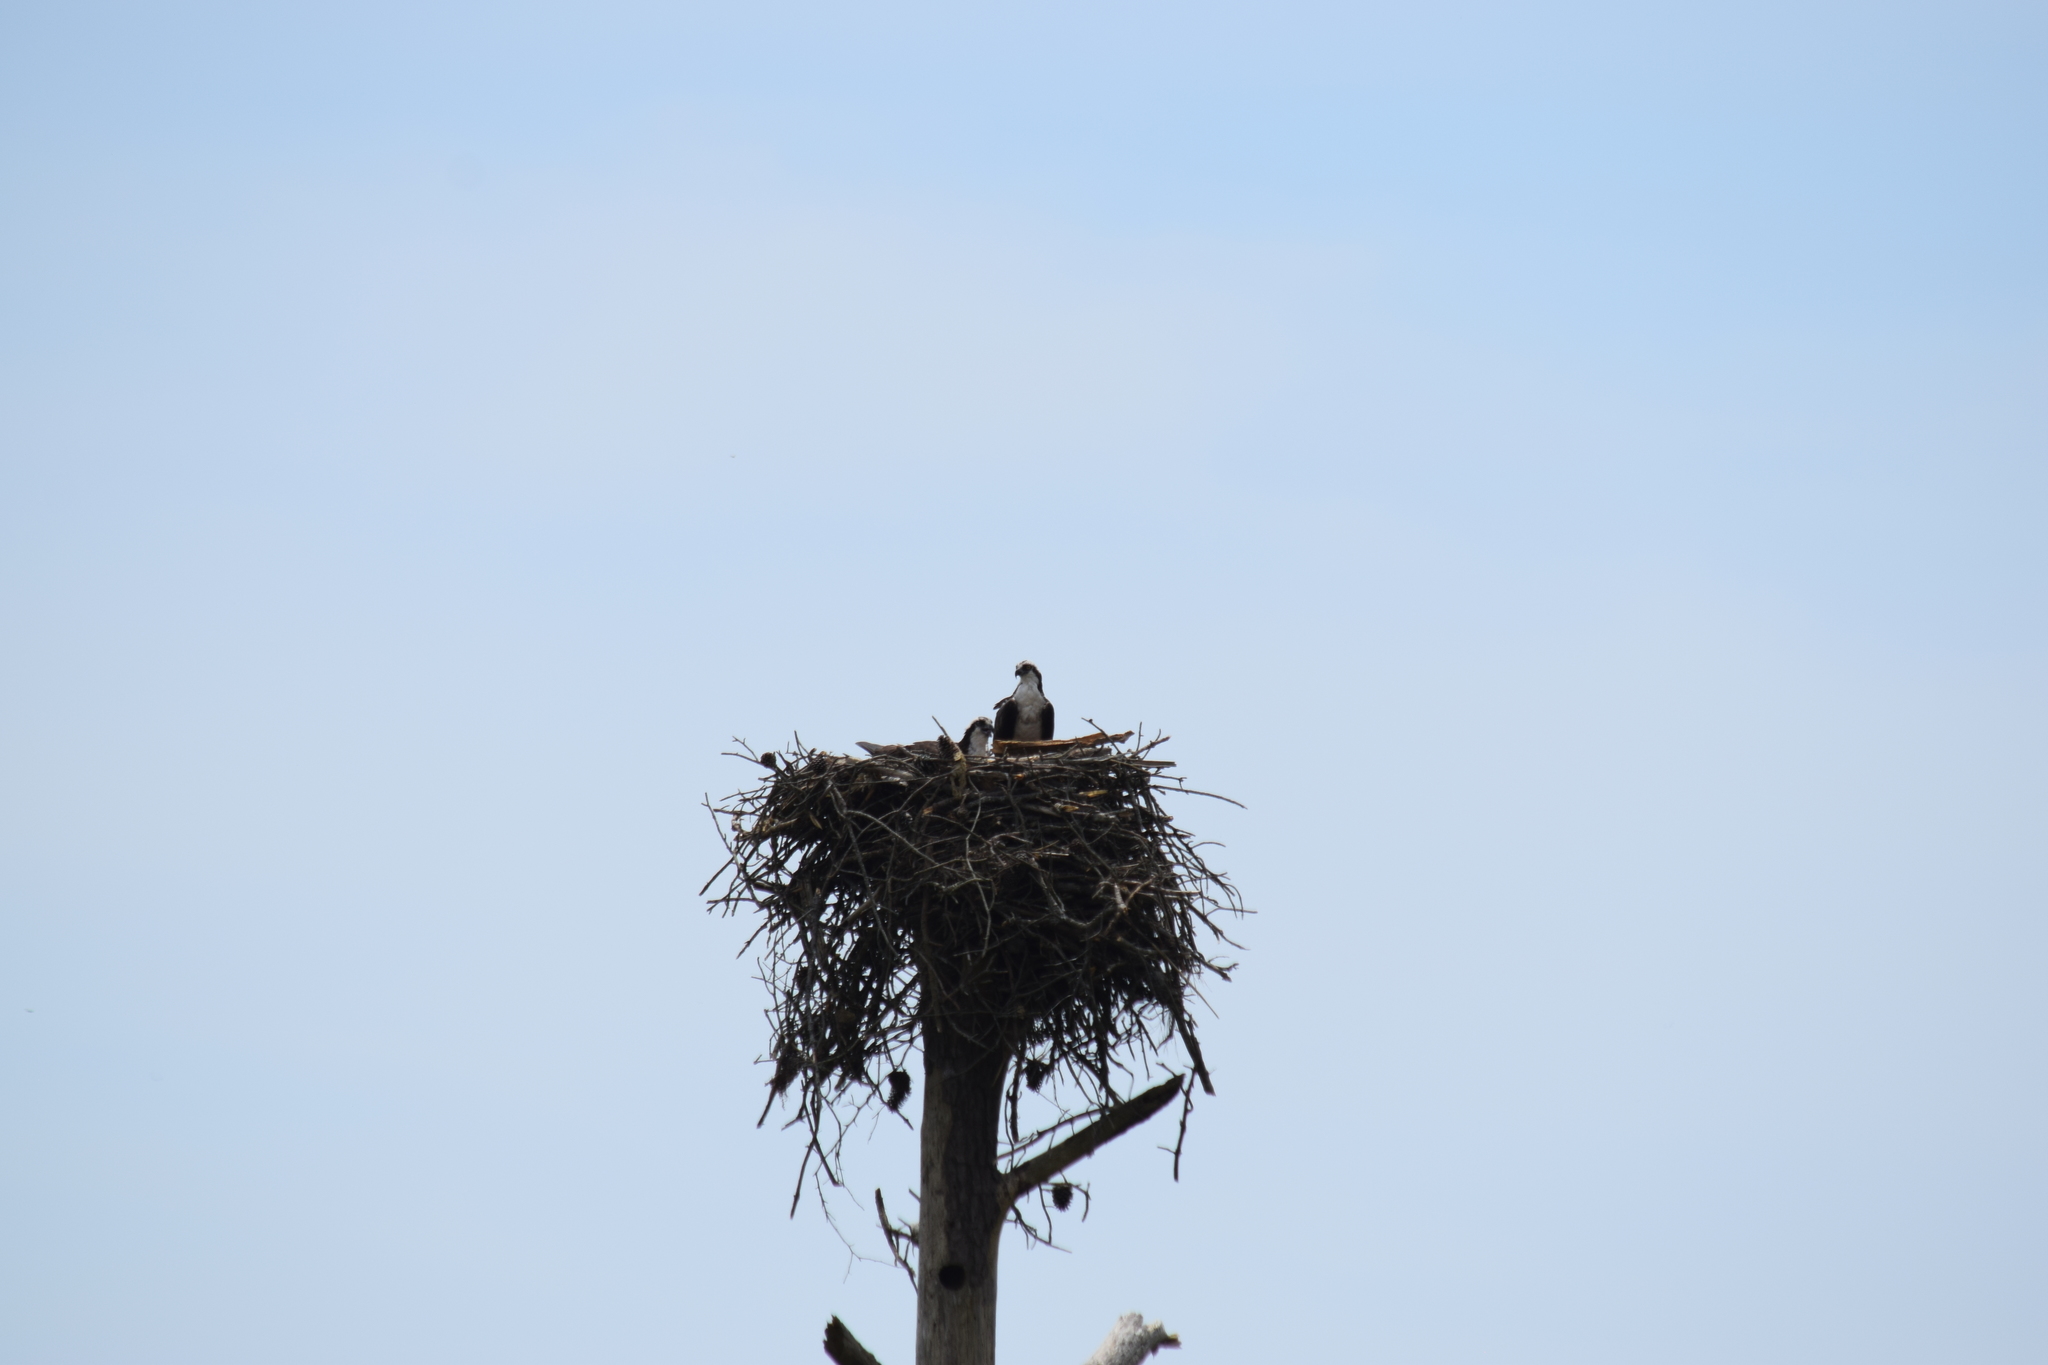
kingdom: Animalia
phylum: Chordata
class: Aves
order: Accipitriformes
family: Pandionidae
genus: Pandion
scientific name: Pandion haliaetus
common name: Osprey
